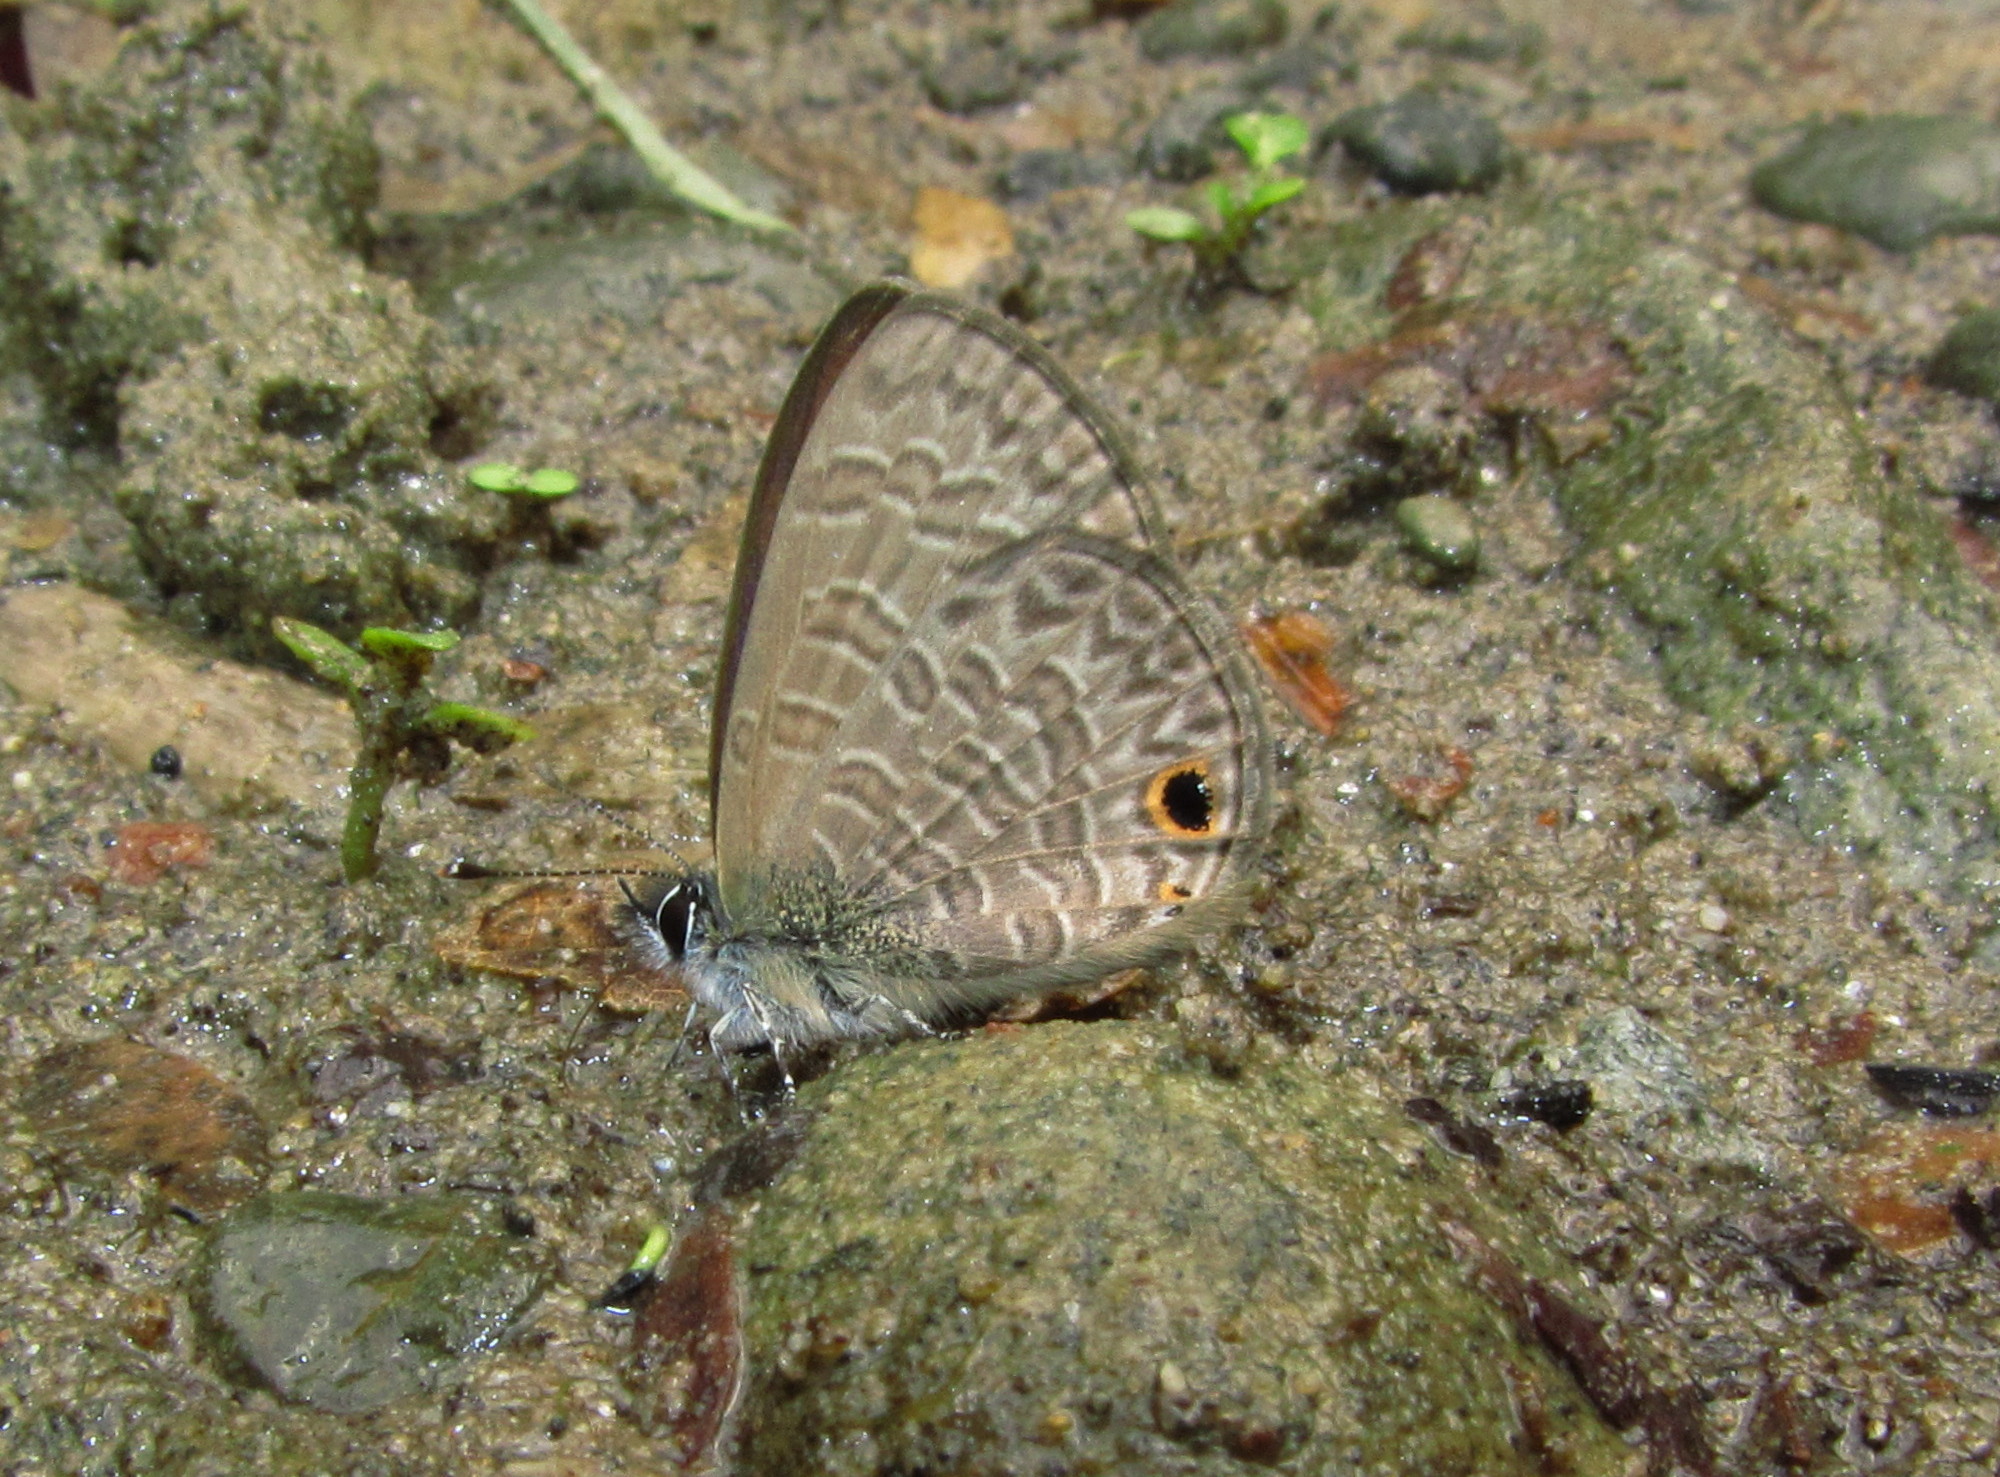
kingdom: Animalia
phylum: Arthropoda
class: Insecta
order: Lepidoptera
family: Lycaenidae
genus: Prosotas
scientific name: Prosotas dubiosa
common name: Tailless lineblue
